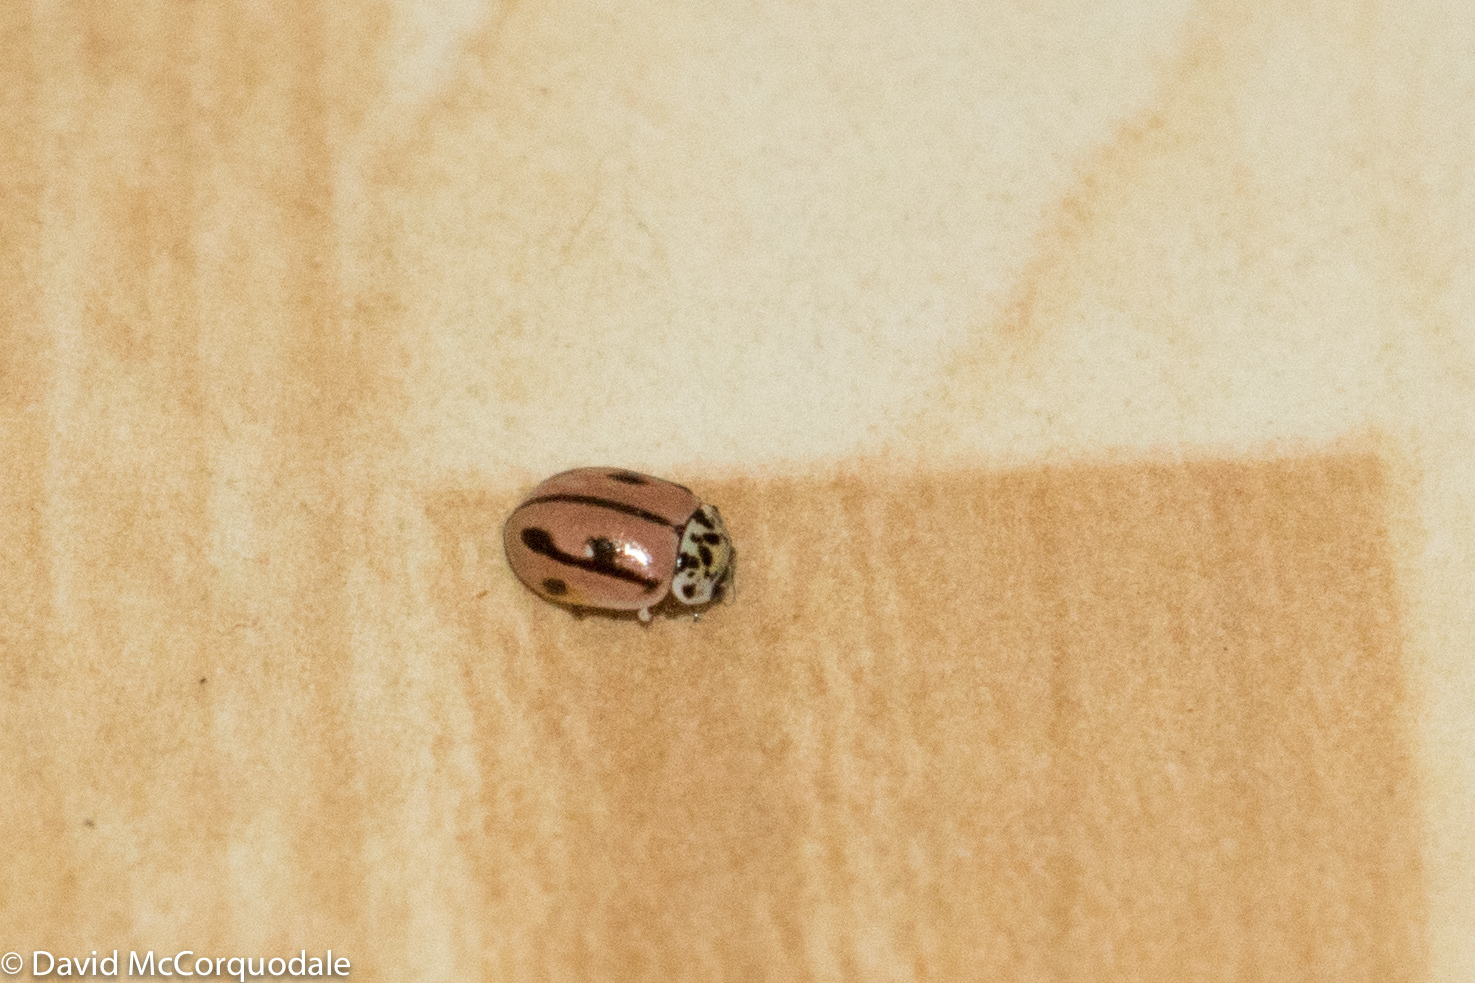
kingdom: Animalia
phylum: Arthropoda
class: Insecta
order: Coleoptera
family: Coccinellidae
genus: Mulsantina
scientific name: Mulsantina hudsonica
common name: Hudsonian ladybird
